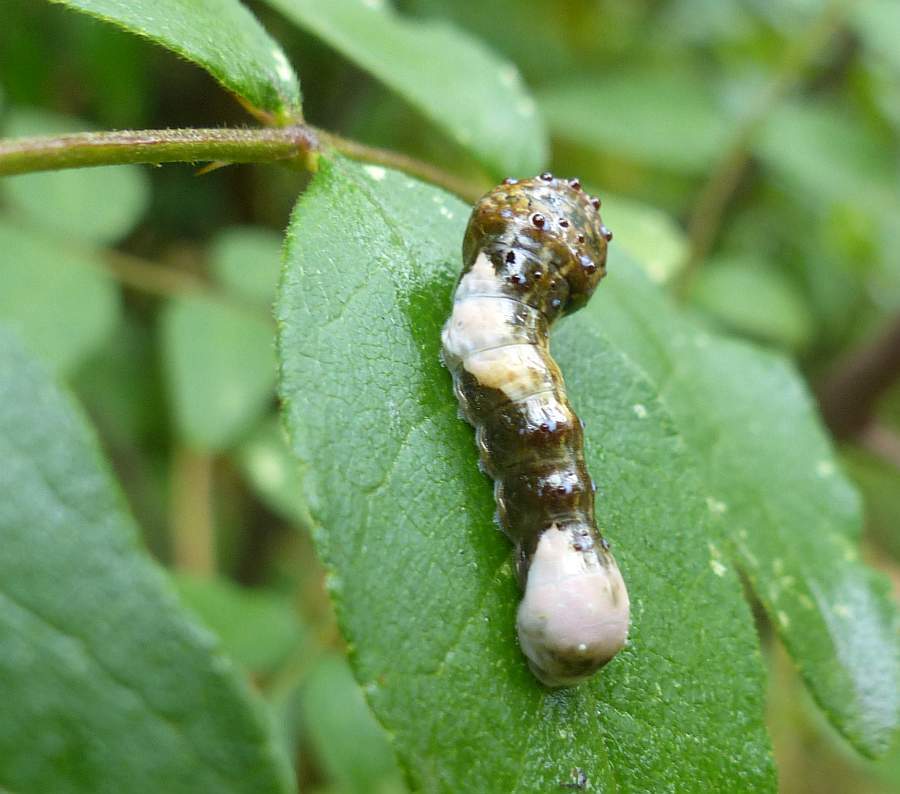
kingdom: Animalia
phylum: Arthropoda
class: Insecta
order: Lepidoptera
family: Papilionidae
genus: Papilio
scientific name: Papilio cresphontes
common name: Giant swallowtail
